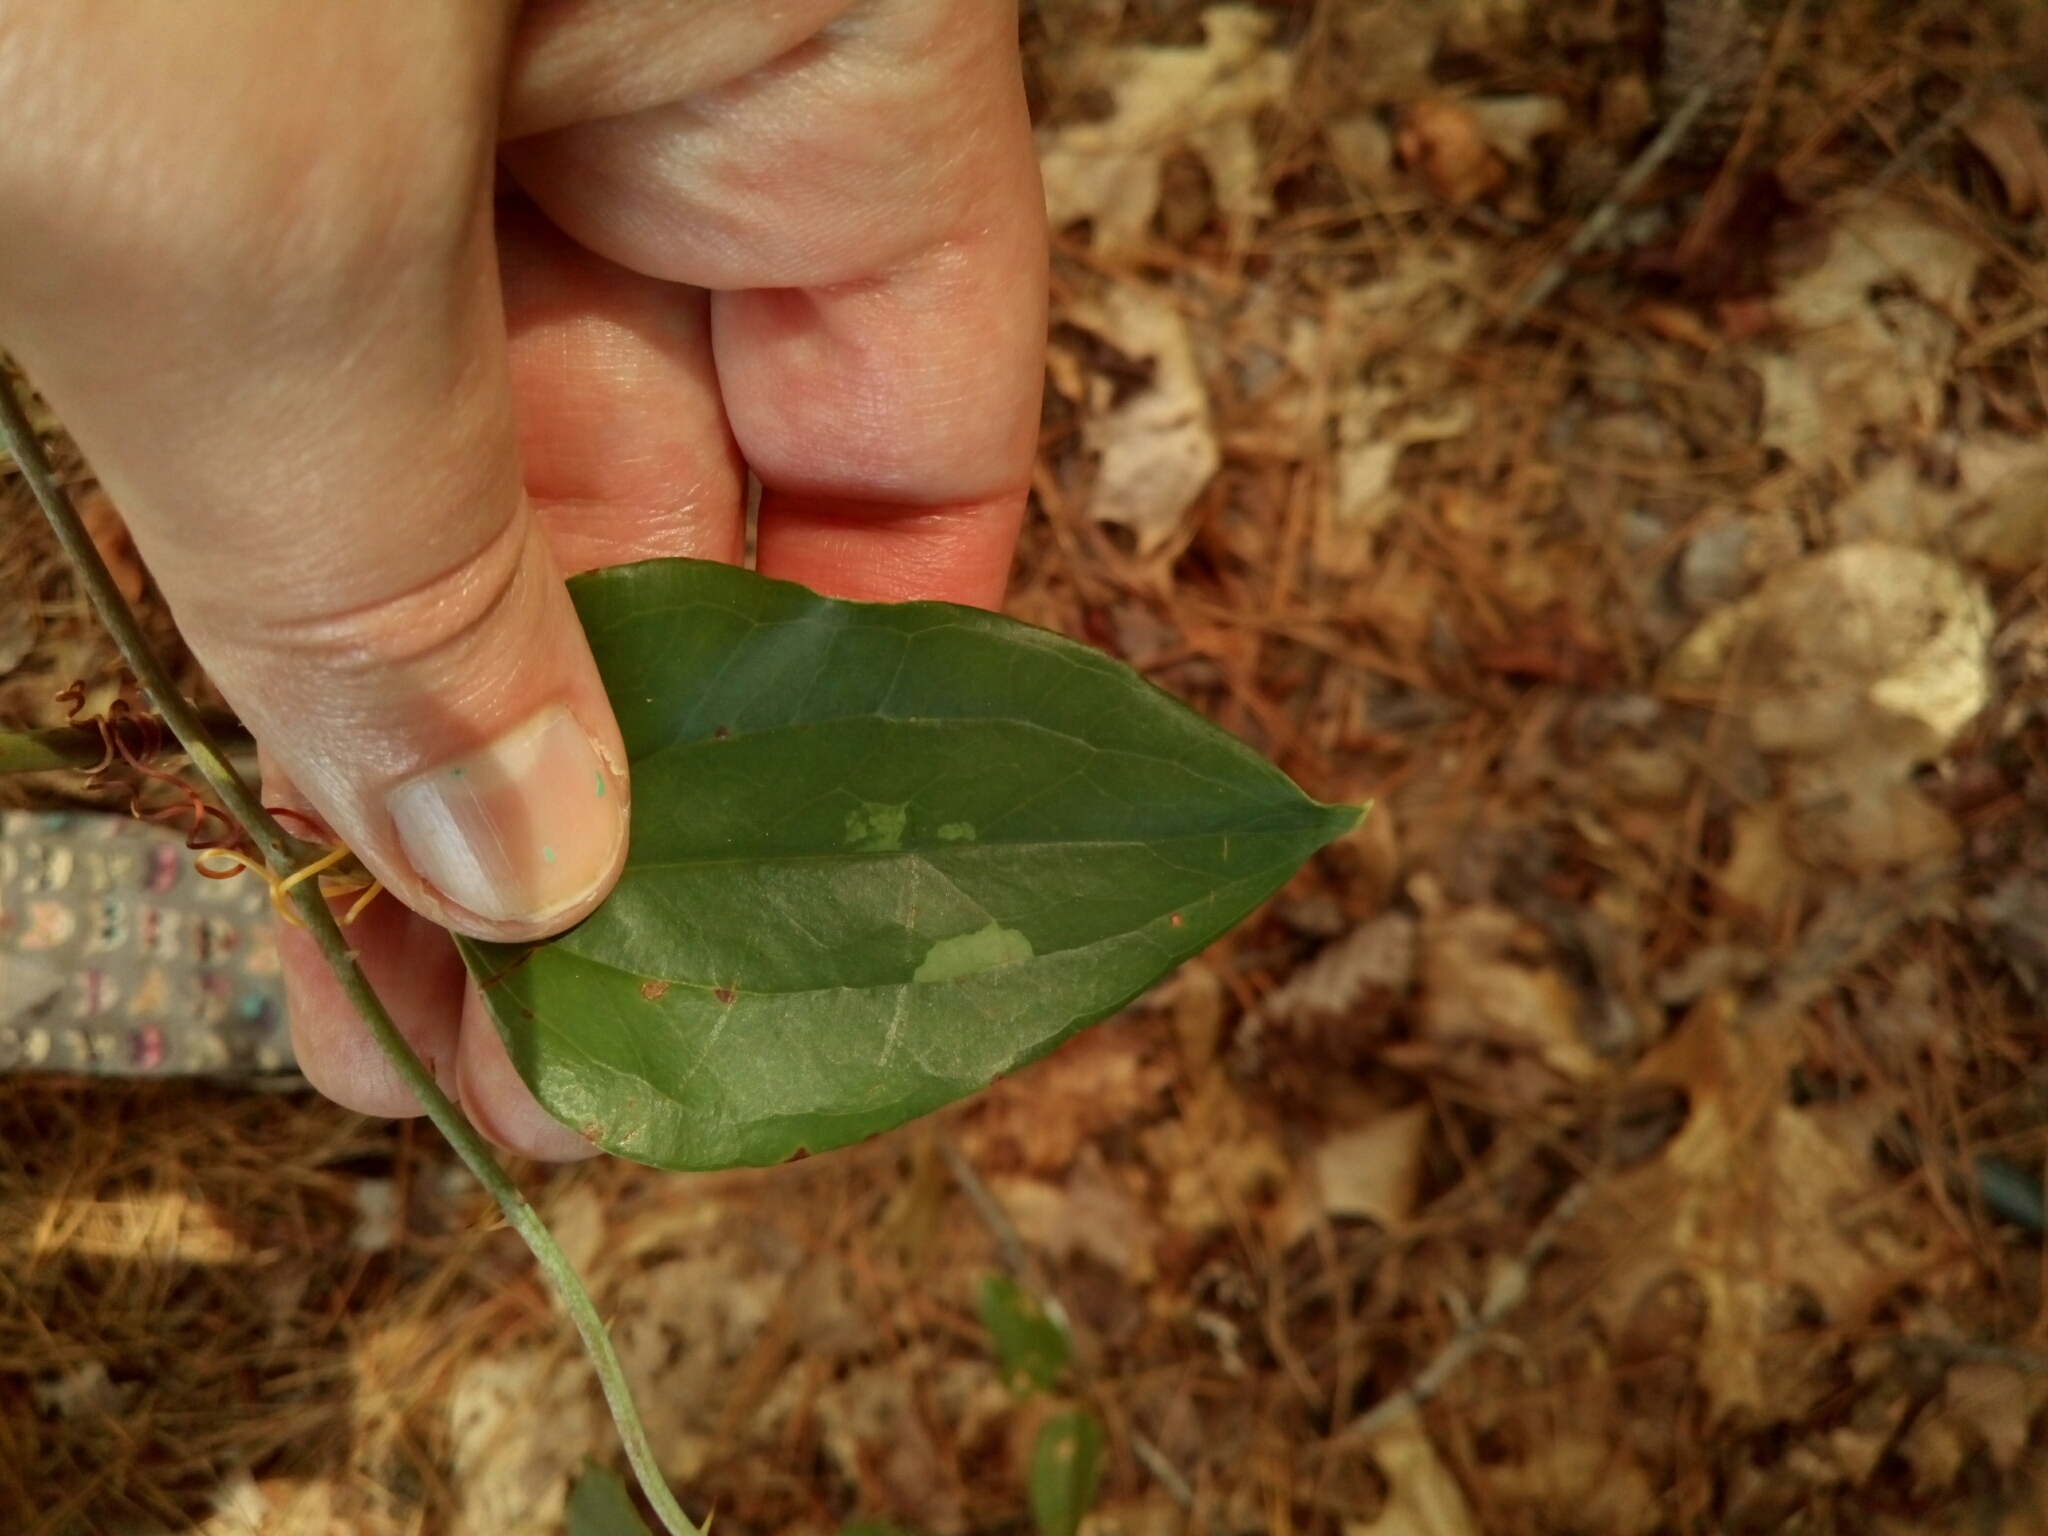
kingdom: Plantae
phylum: Tracheophyta
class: Liliopsida
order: Liliales
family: Smilacaceae
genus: Smilax
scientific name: Smilax glauca
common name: Cat greenbrier
